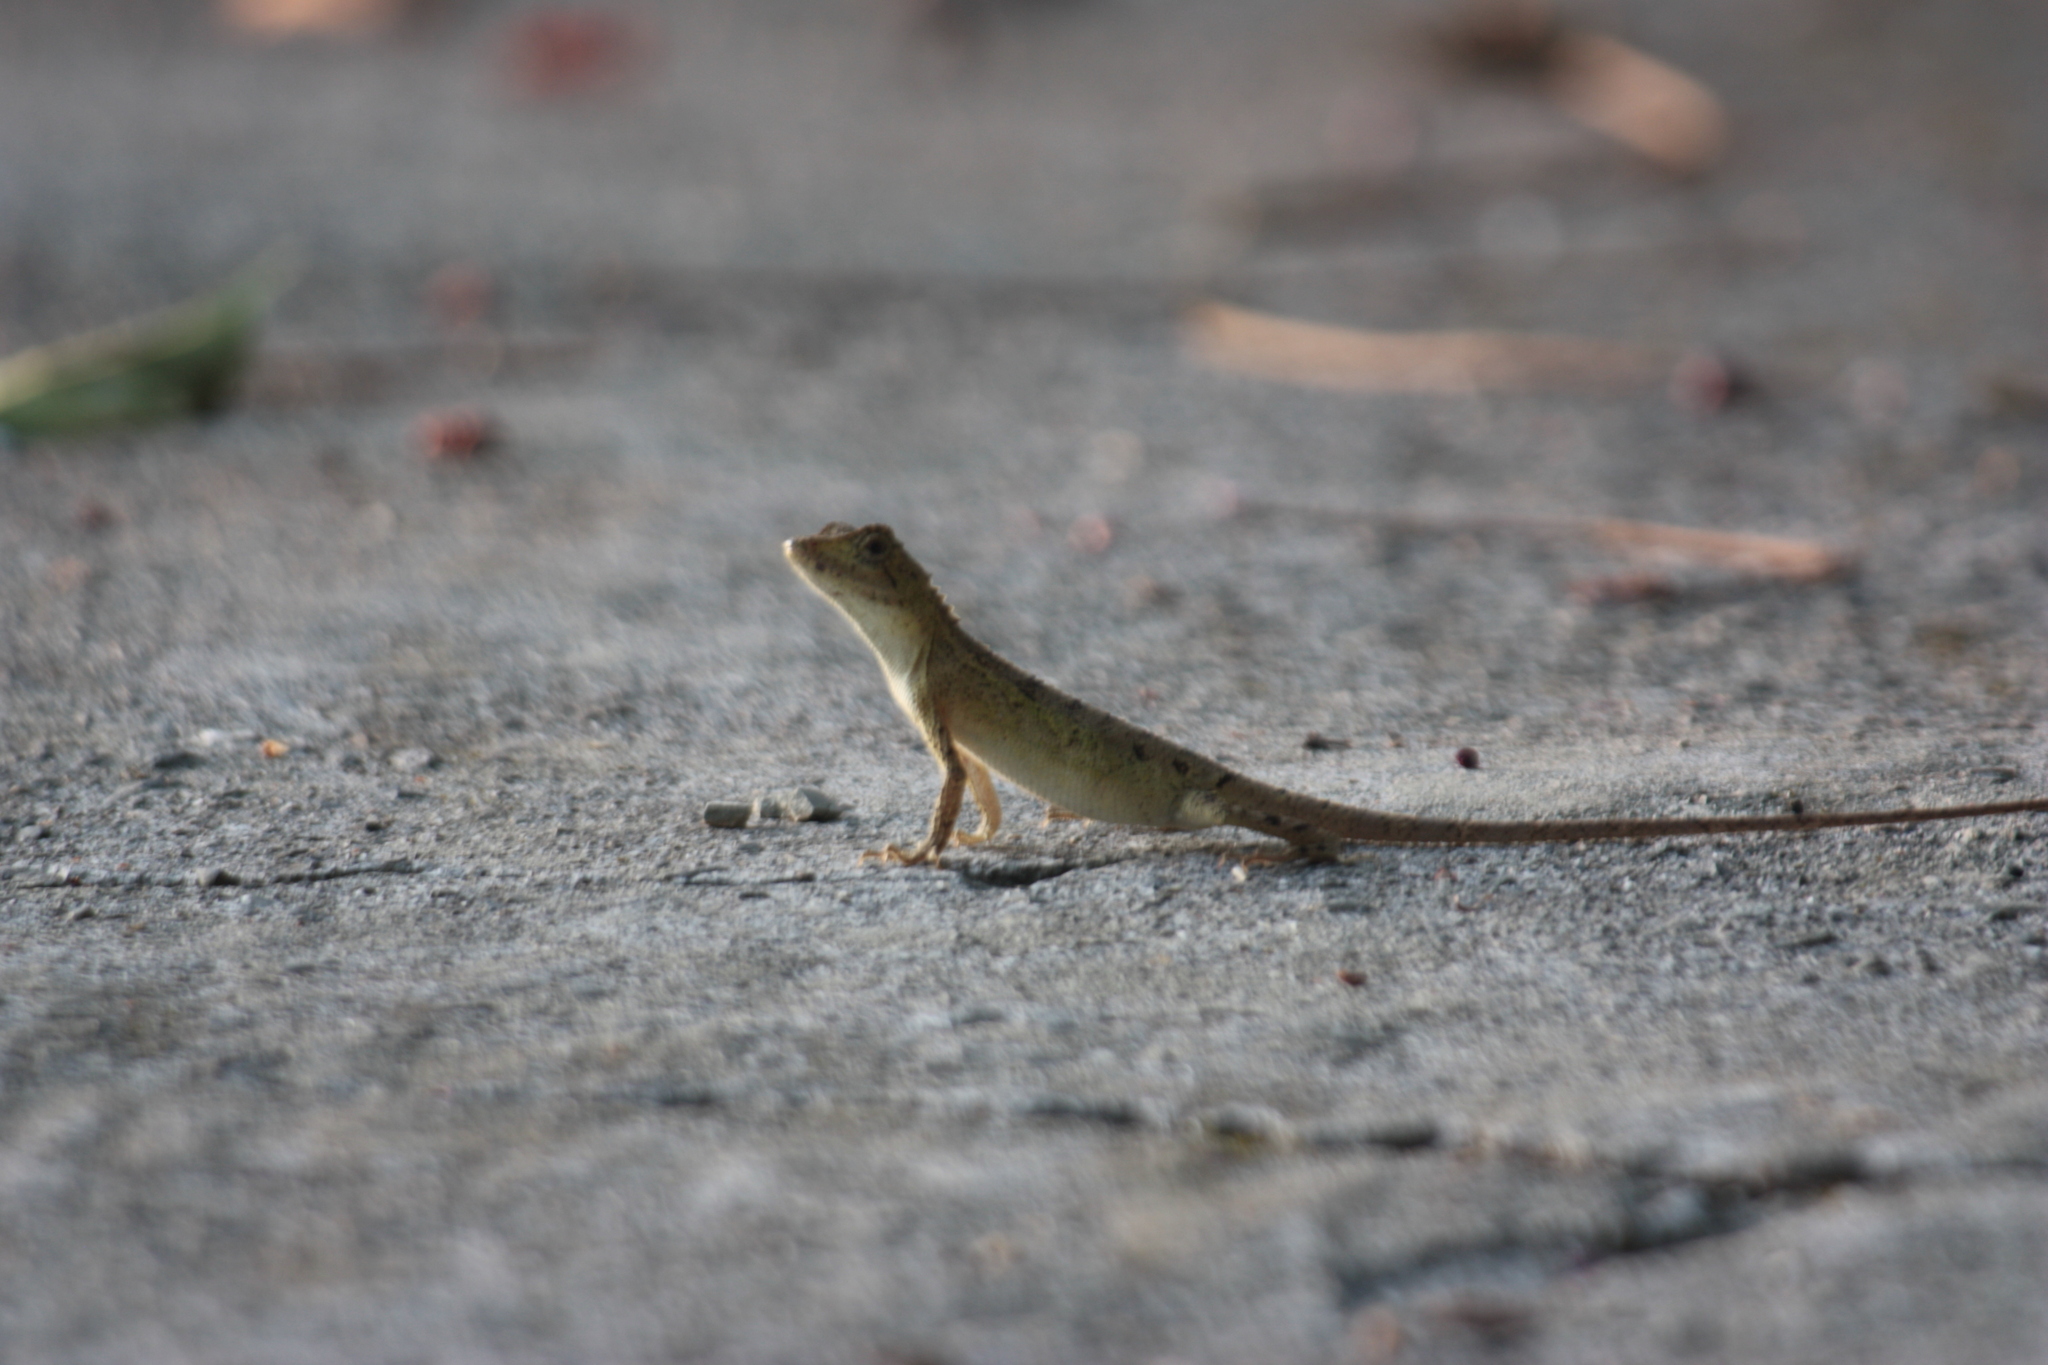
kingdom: Animalia
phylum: Chordata
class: Squamata
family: Agamidae
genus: Diploderma
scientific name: Diploderma swinhonis
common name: Taiwan japalure
